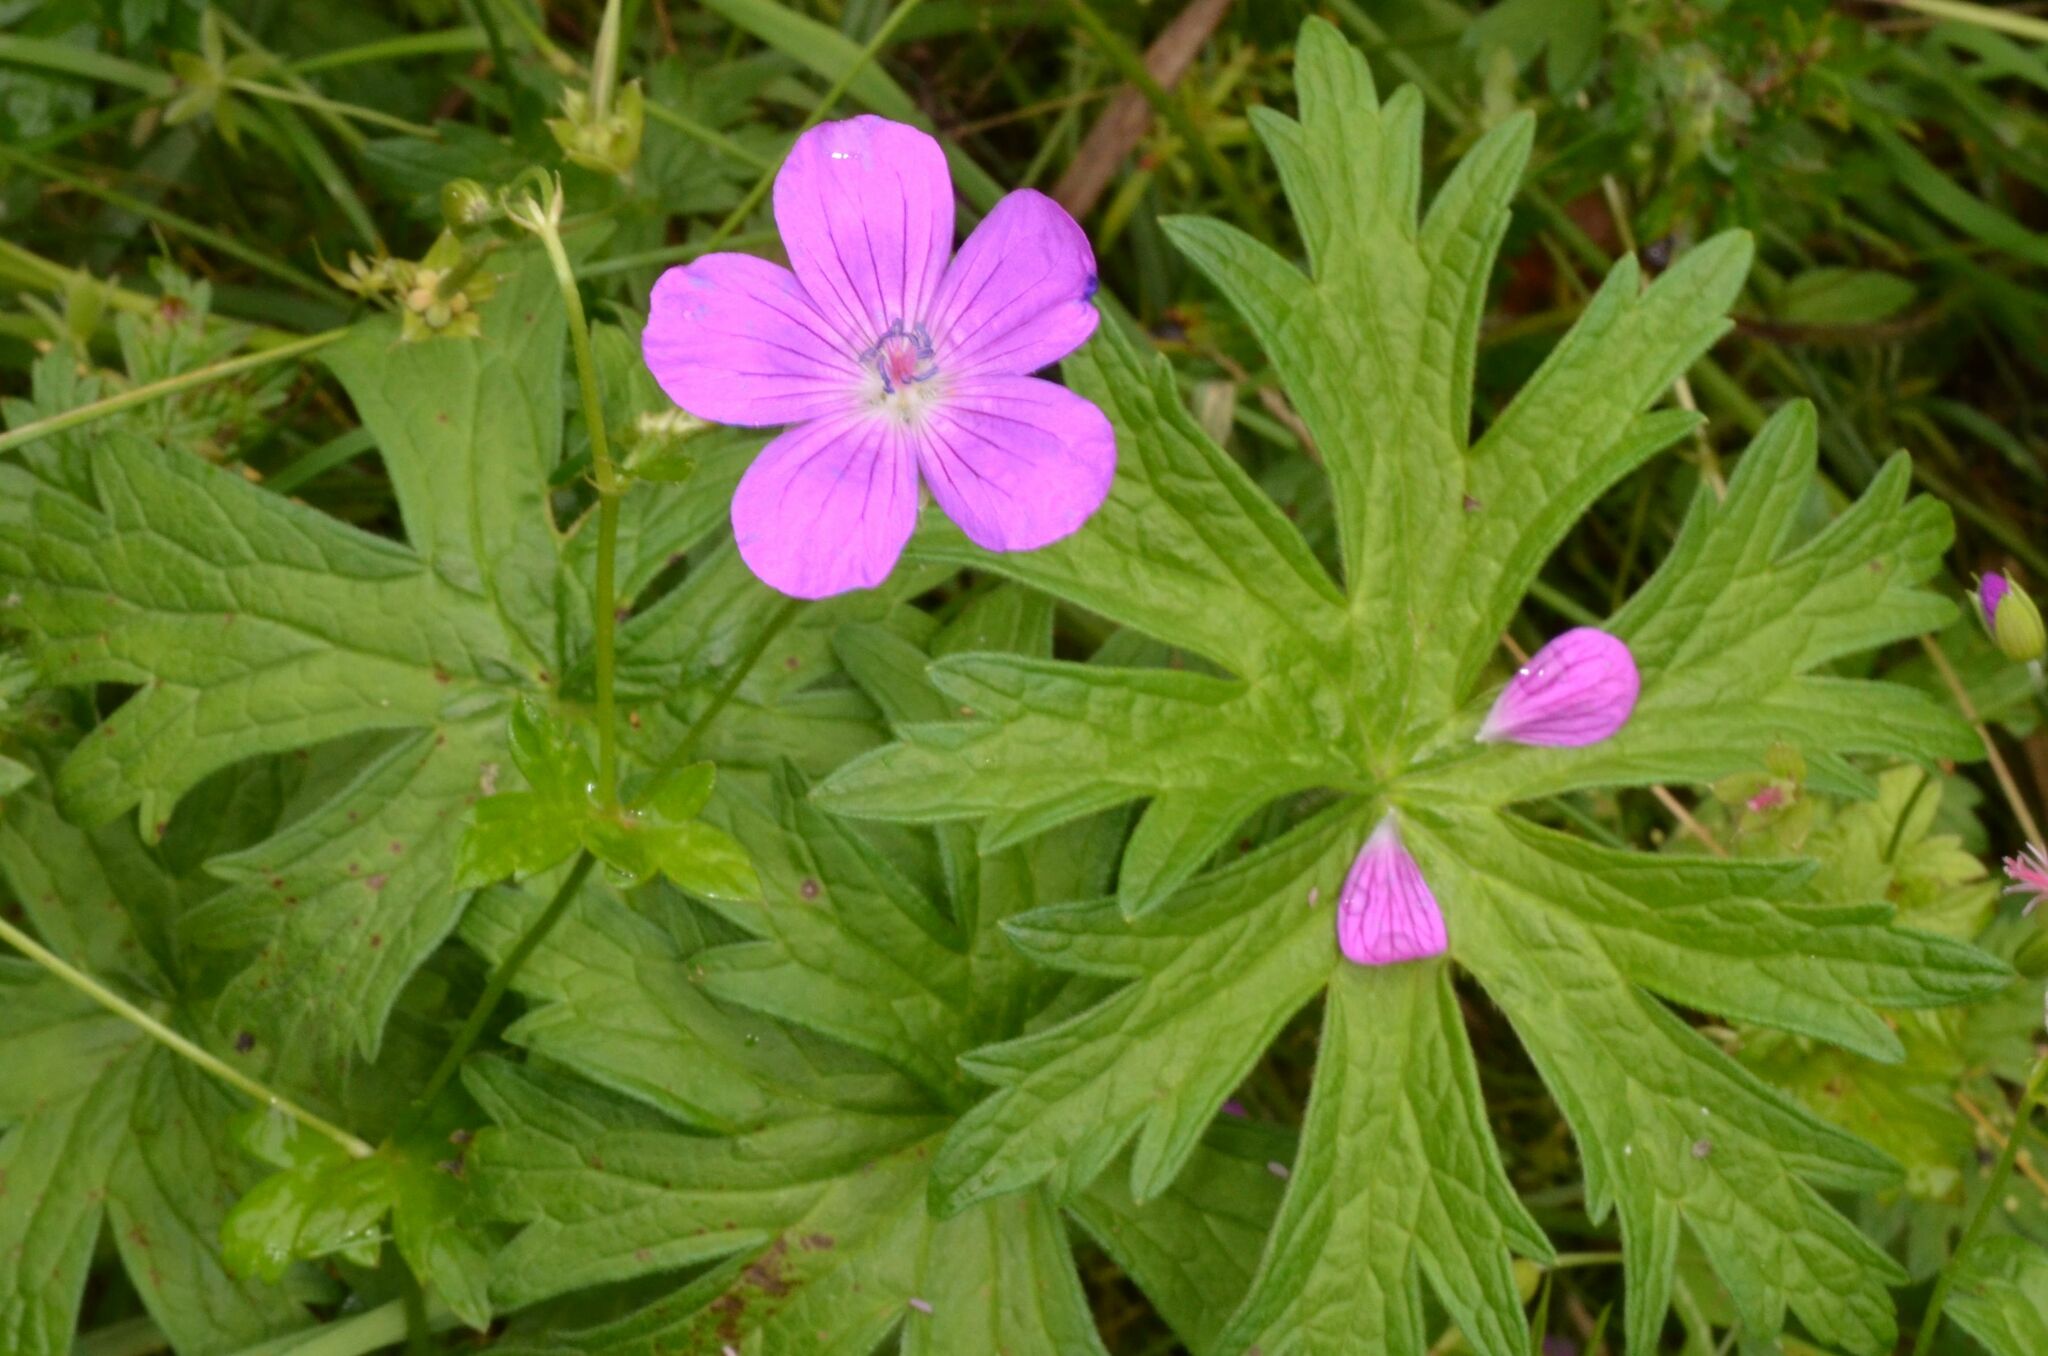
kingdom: Plantae
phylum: Tracheophyta
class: Magnoliopsida
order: Geraniales
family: Geraniaceae
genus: Geranium
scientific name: Geranium palustre
